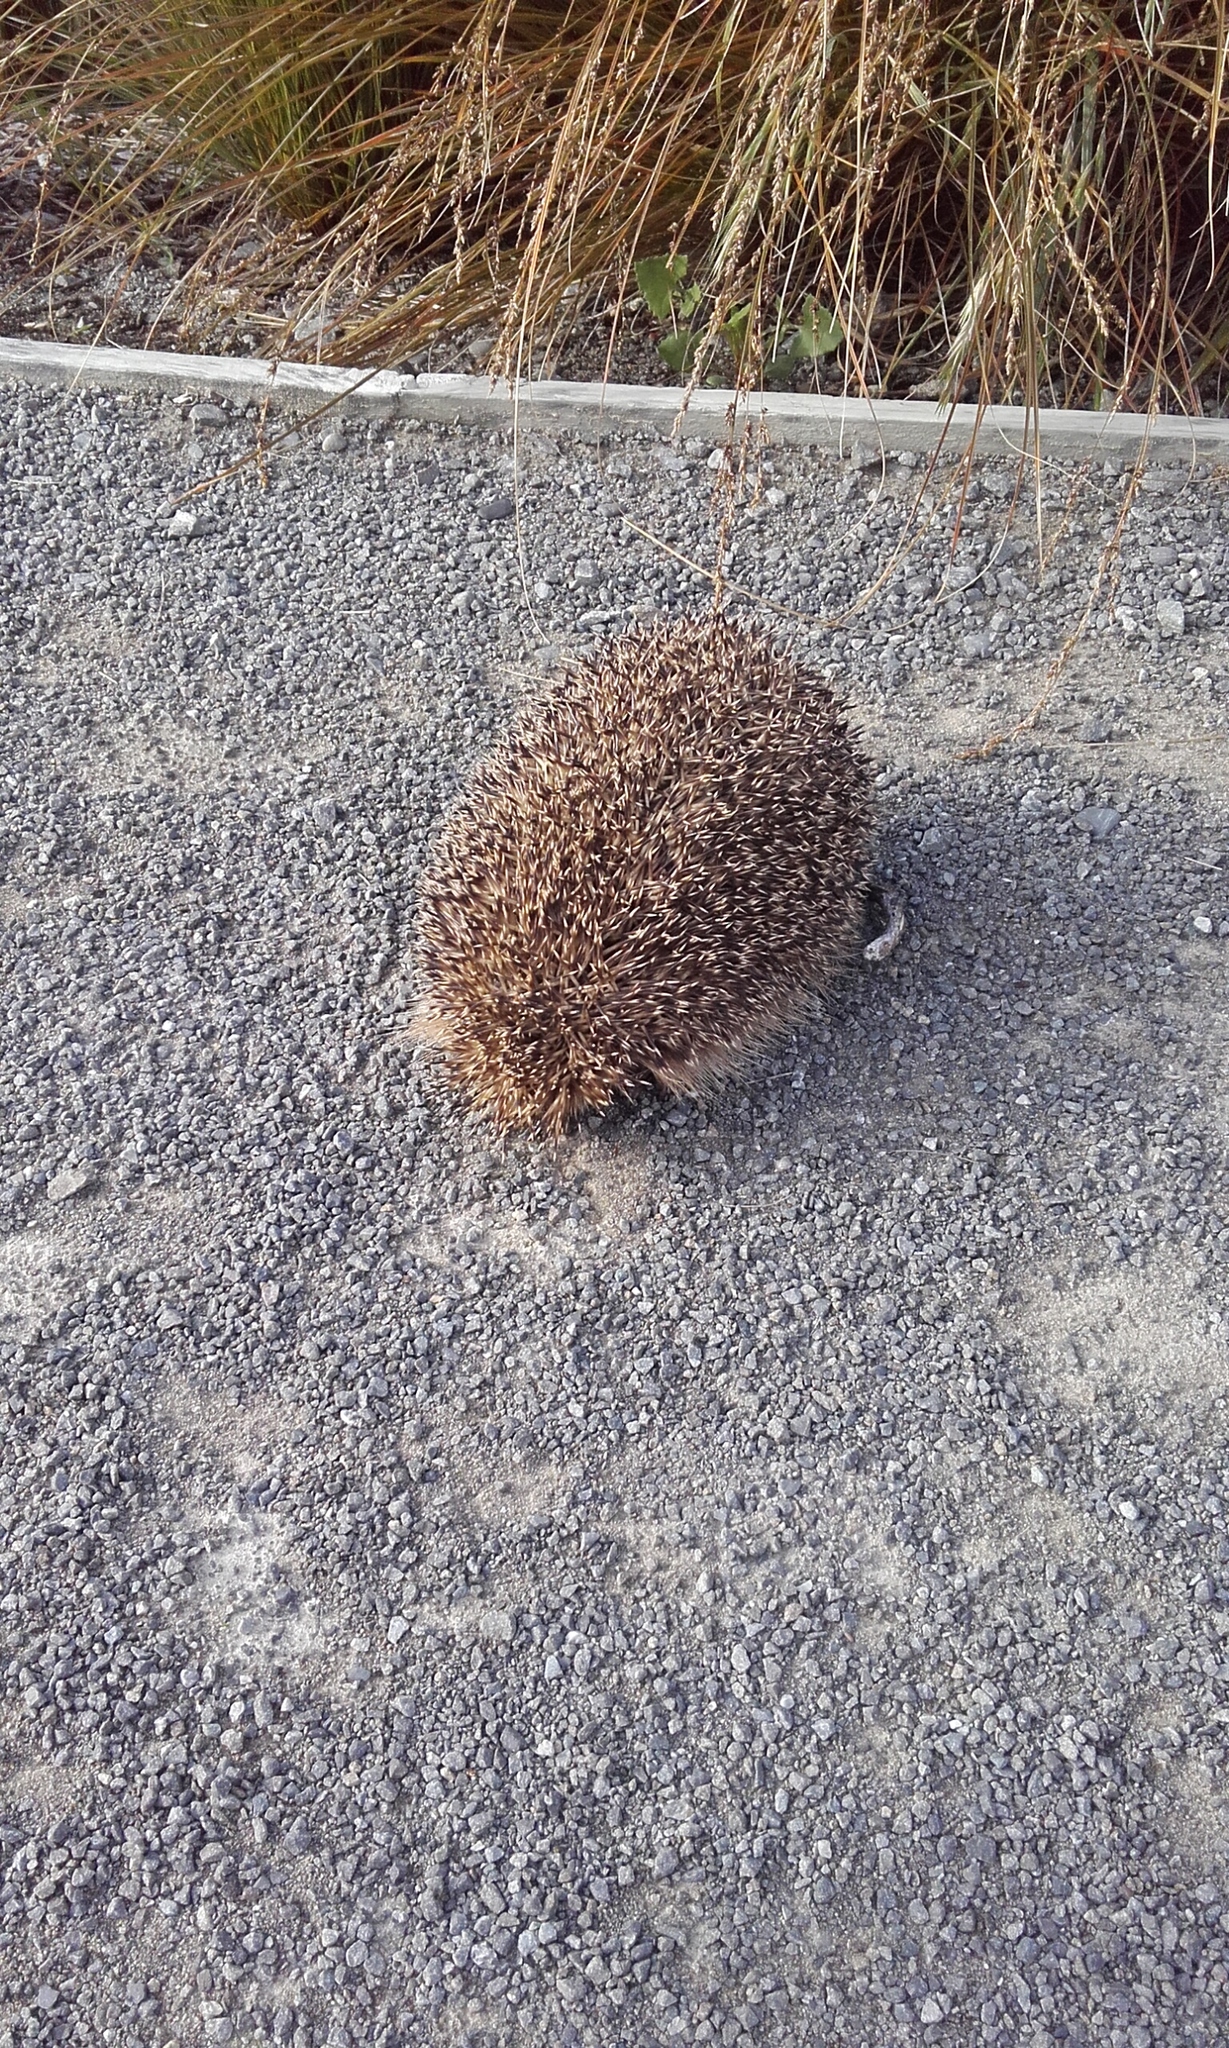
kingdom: Animalia
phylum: Chordata
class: Mammalia
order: Erinaceomorpha
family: Erinaceidae
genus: Erinaceus
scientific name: Erinaceus europaeus
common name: West european hedgehog
